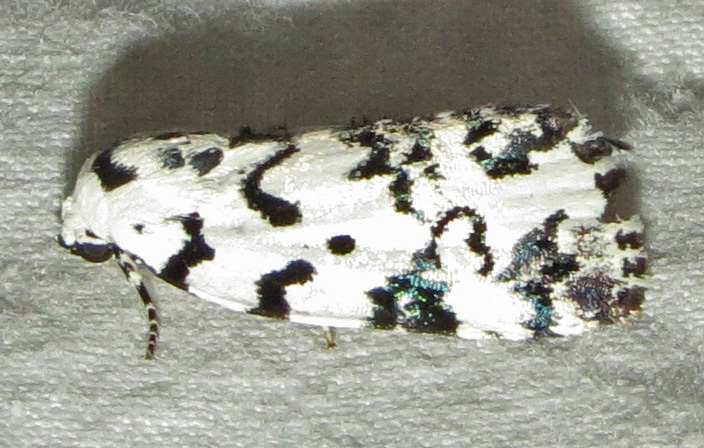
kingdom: Animalia
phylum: Arthropoda
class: Insecta
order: Lepidoptera
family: Noctuidae
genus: Polygrammate
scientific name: Polygrammate hebraeicum
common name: Hebrew moth
